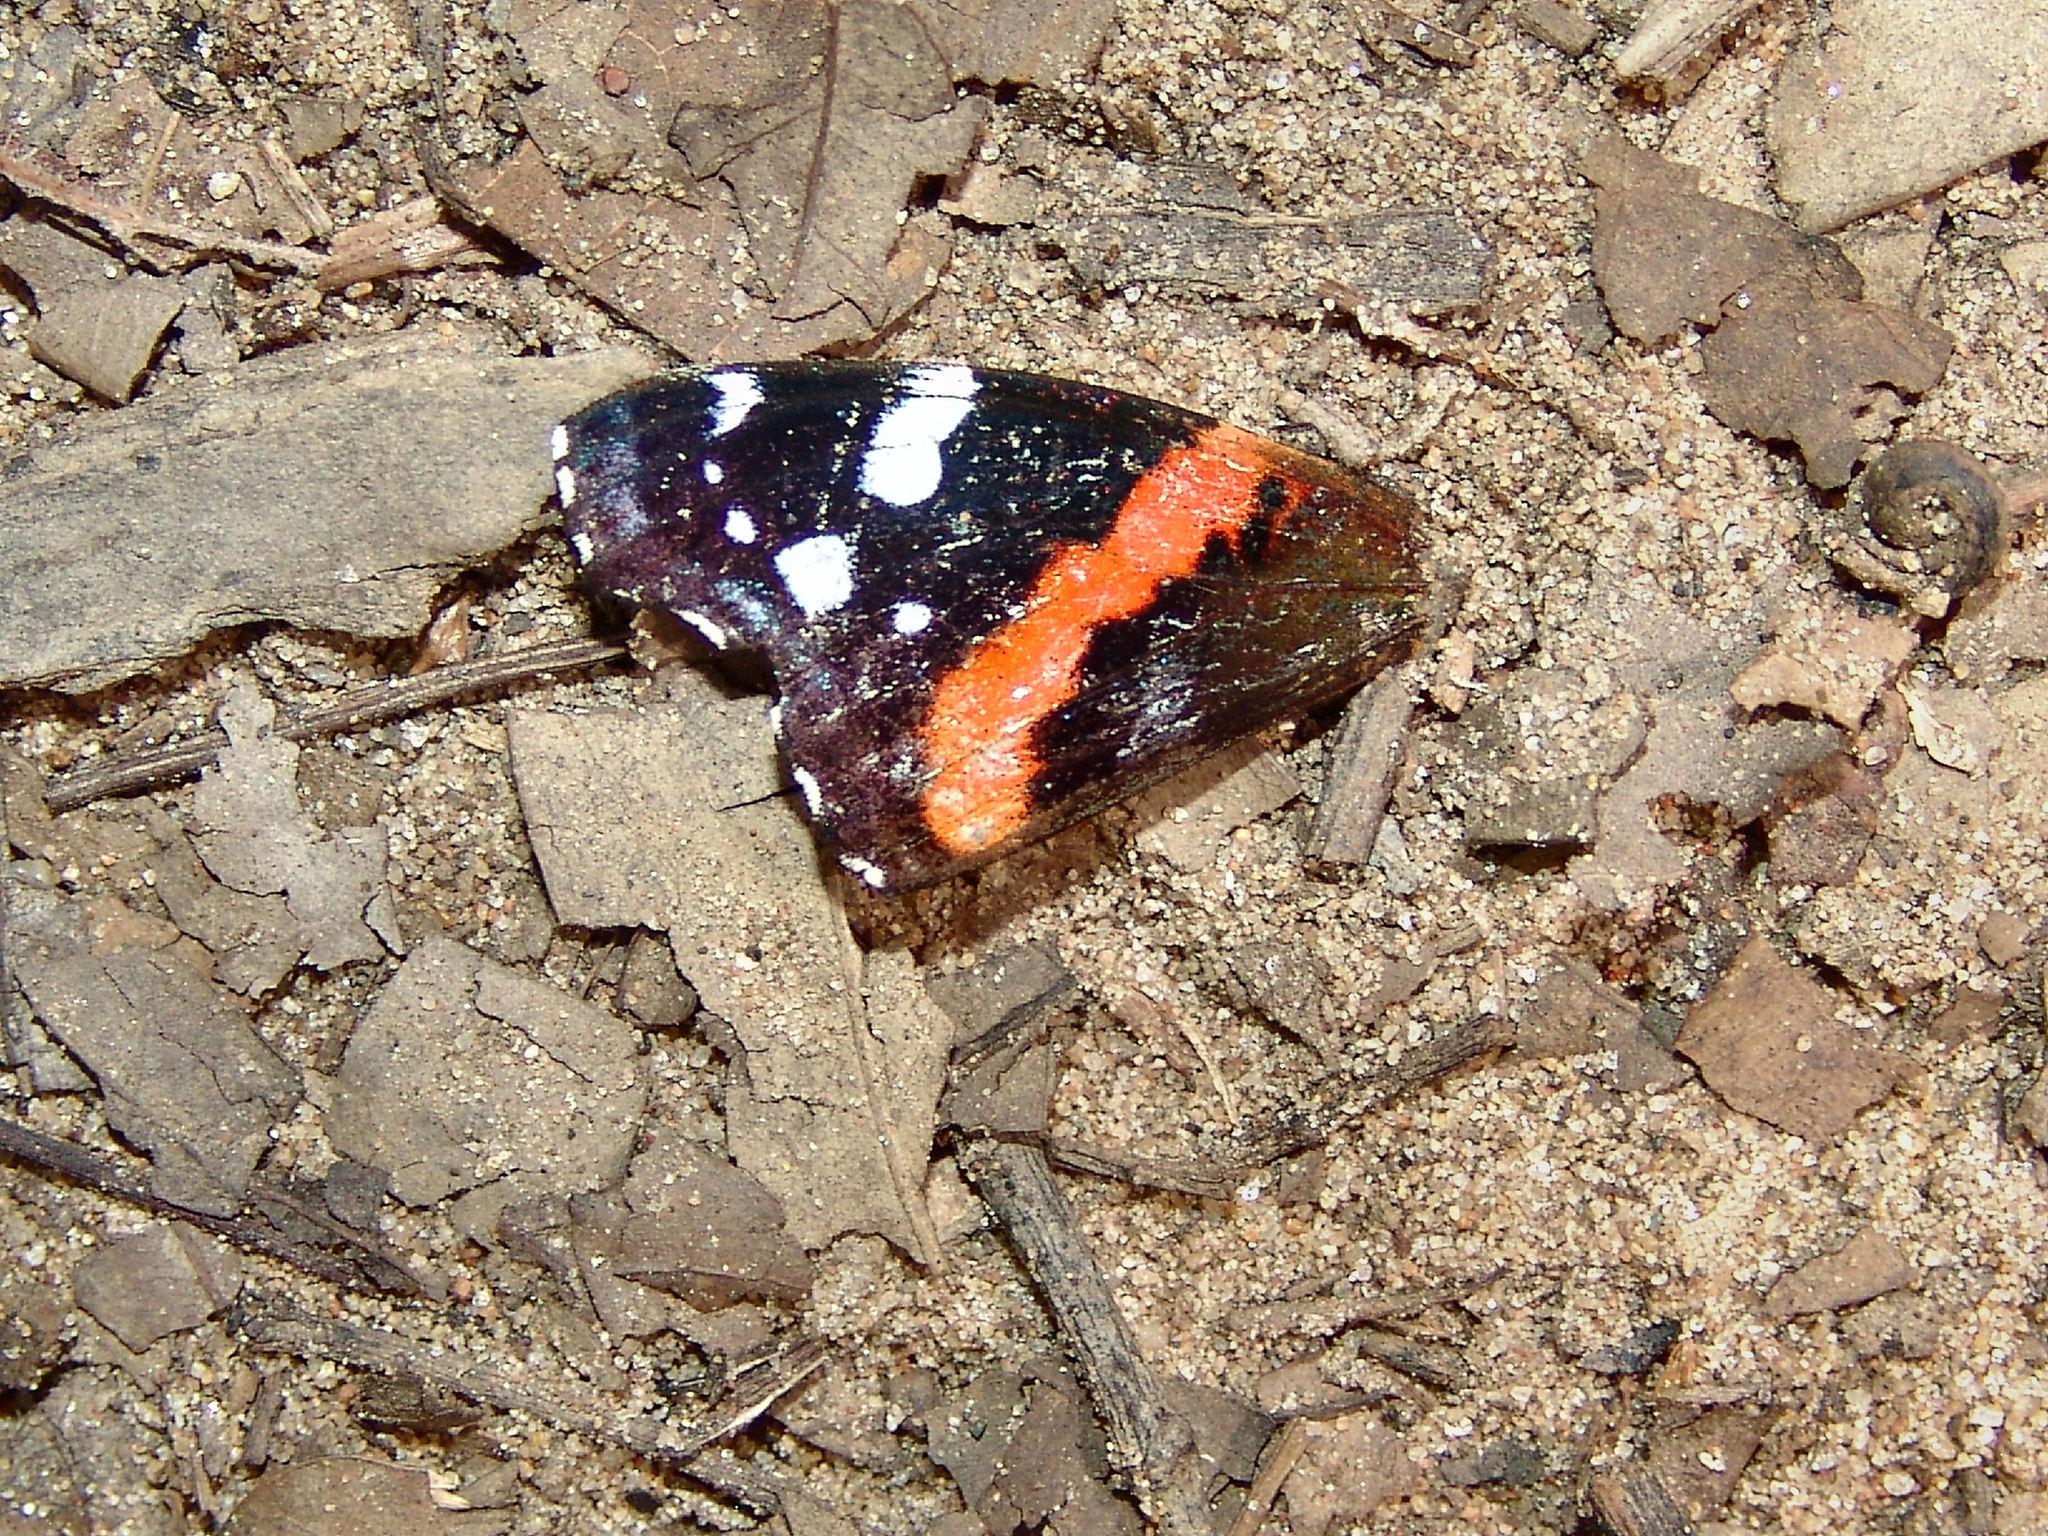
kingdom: Animalia
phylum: Arthropoda
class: Insecta
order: Lepidoptera
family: Nymphalidae
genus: Vanessa
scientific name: Vanessa atalanta
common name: Red admiral
